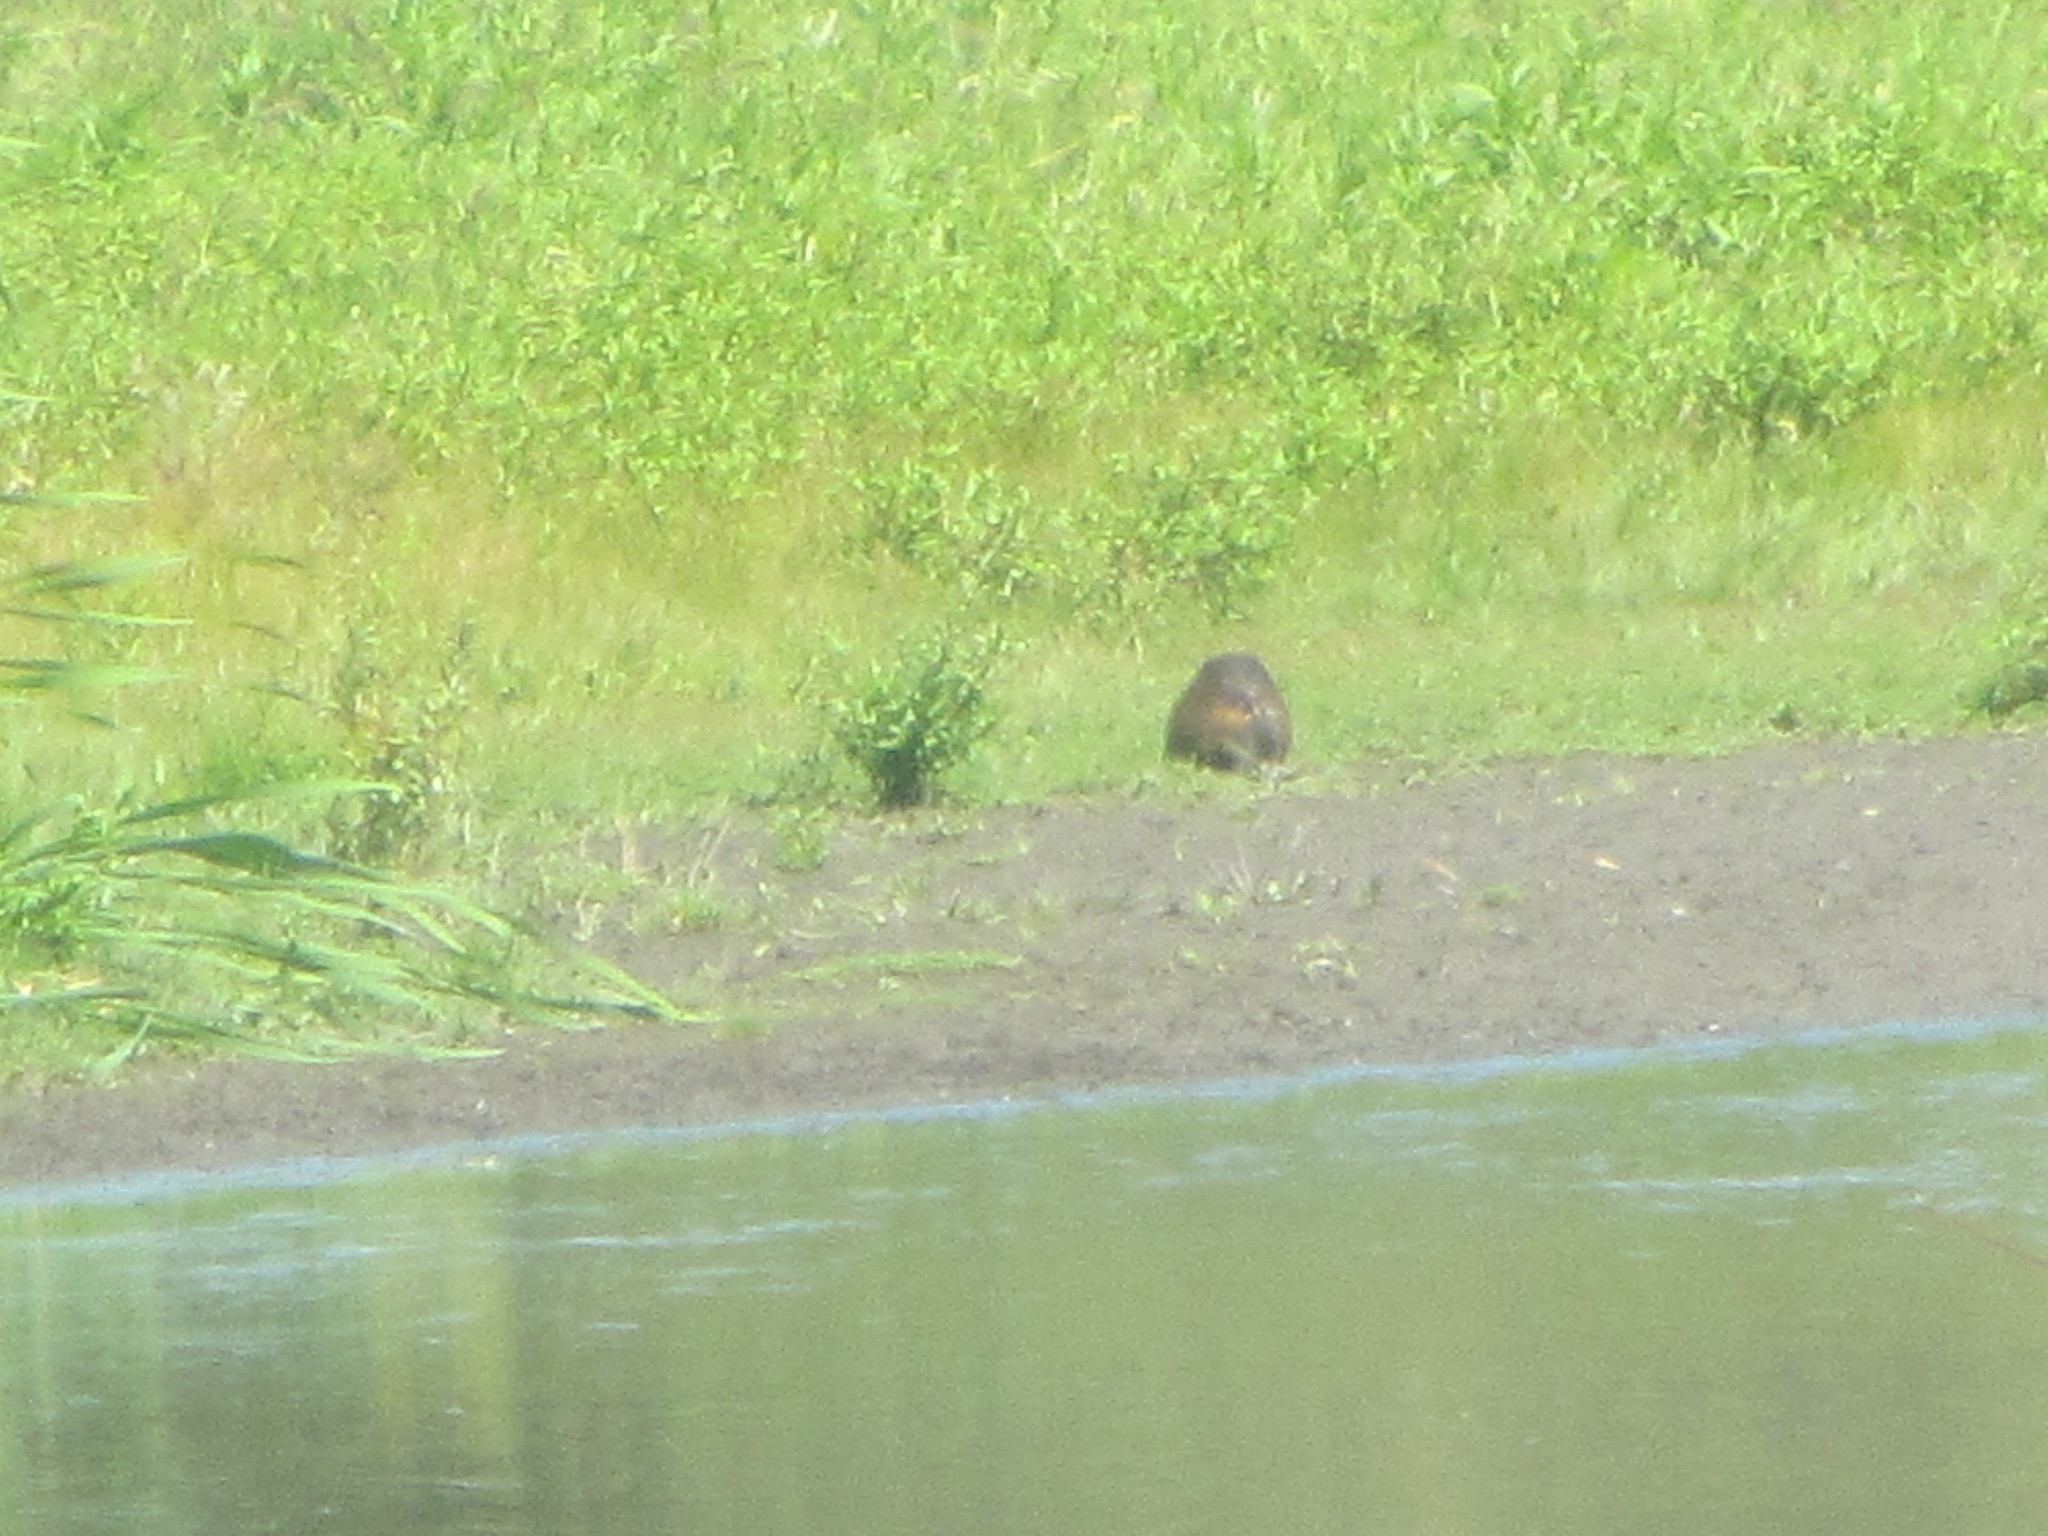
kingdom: Animalia
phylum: Chordata
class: Mammalia
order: Rodentia
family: Myocastoridae
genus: Myocastor
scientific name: Myocastor coypus
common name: Coypu
